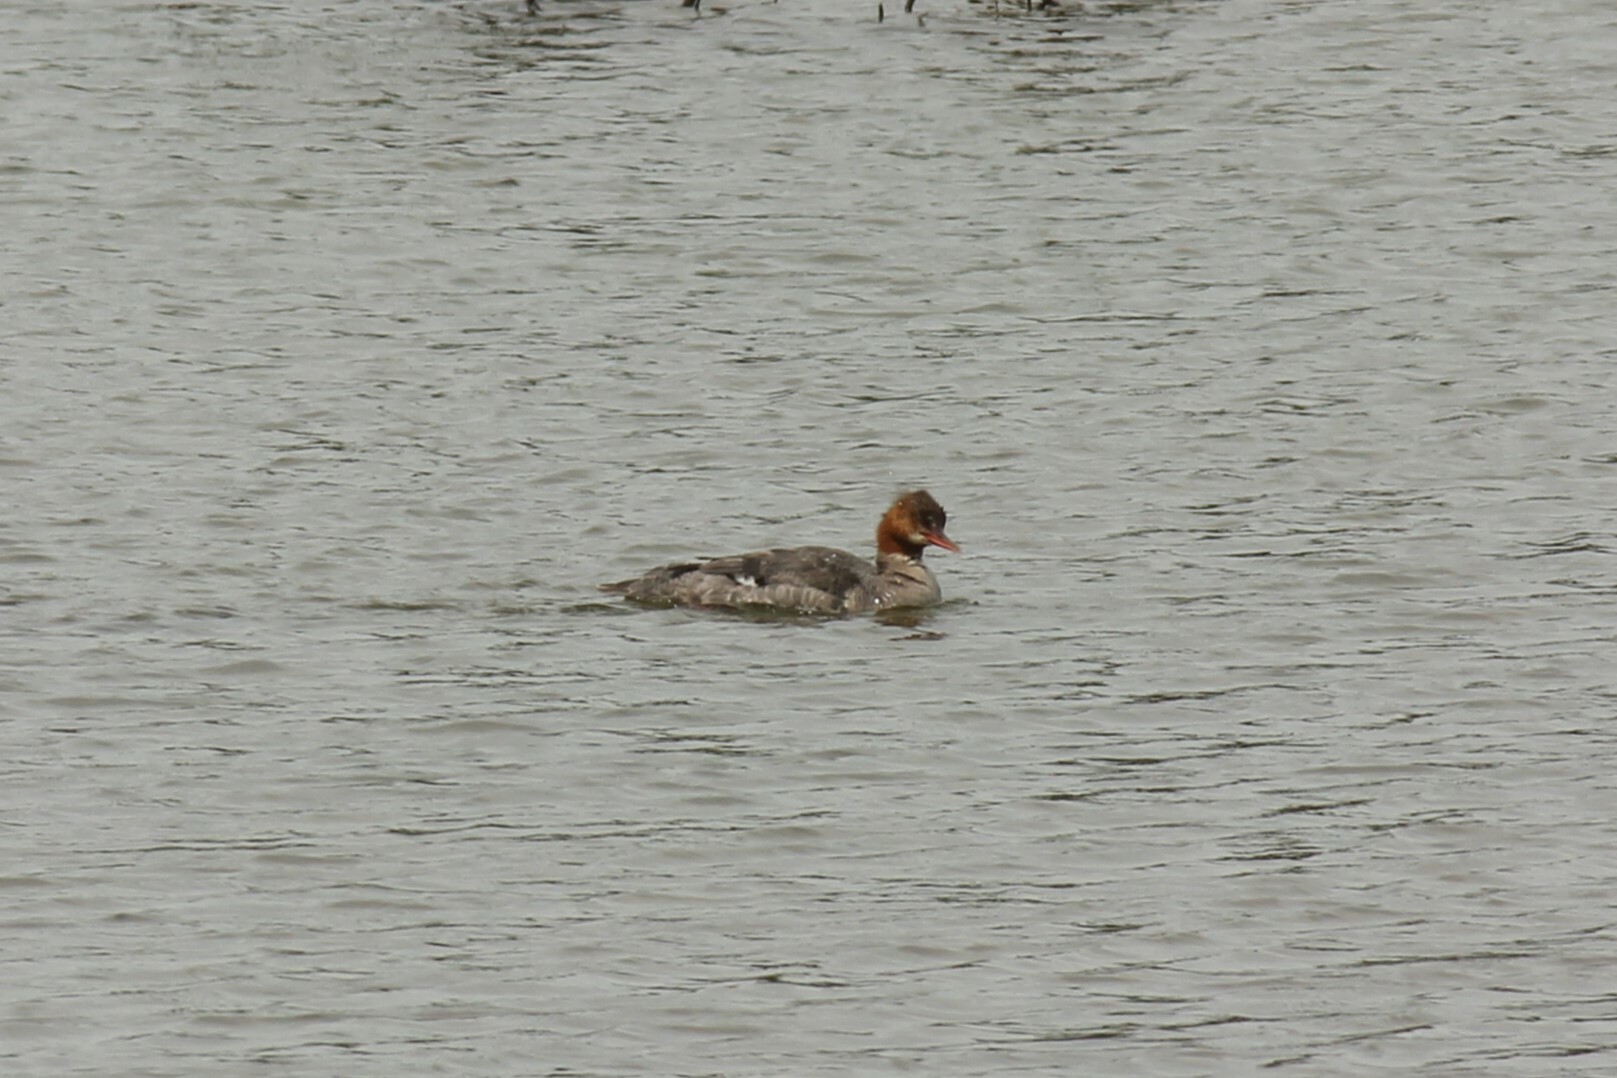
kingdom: Animalia
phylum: Chordata
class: Aves
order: Anseriformes
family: Anatidae
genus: Mergus
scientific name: Mergus merganser
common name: Common merganser
